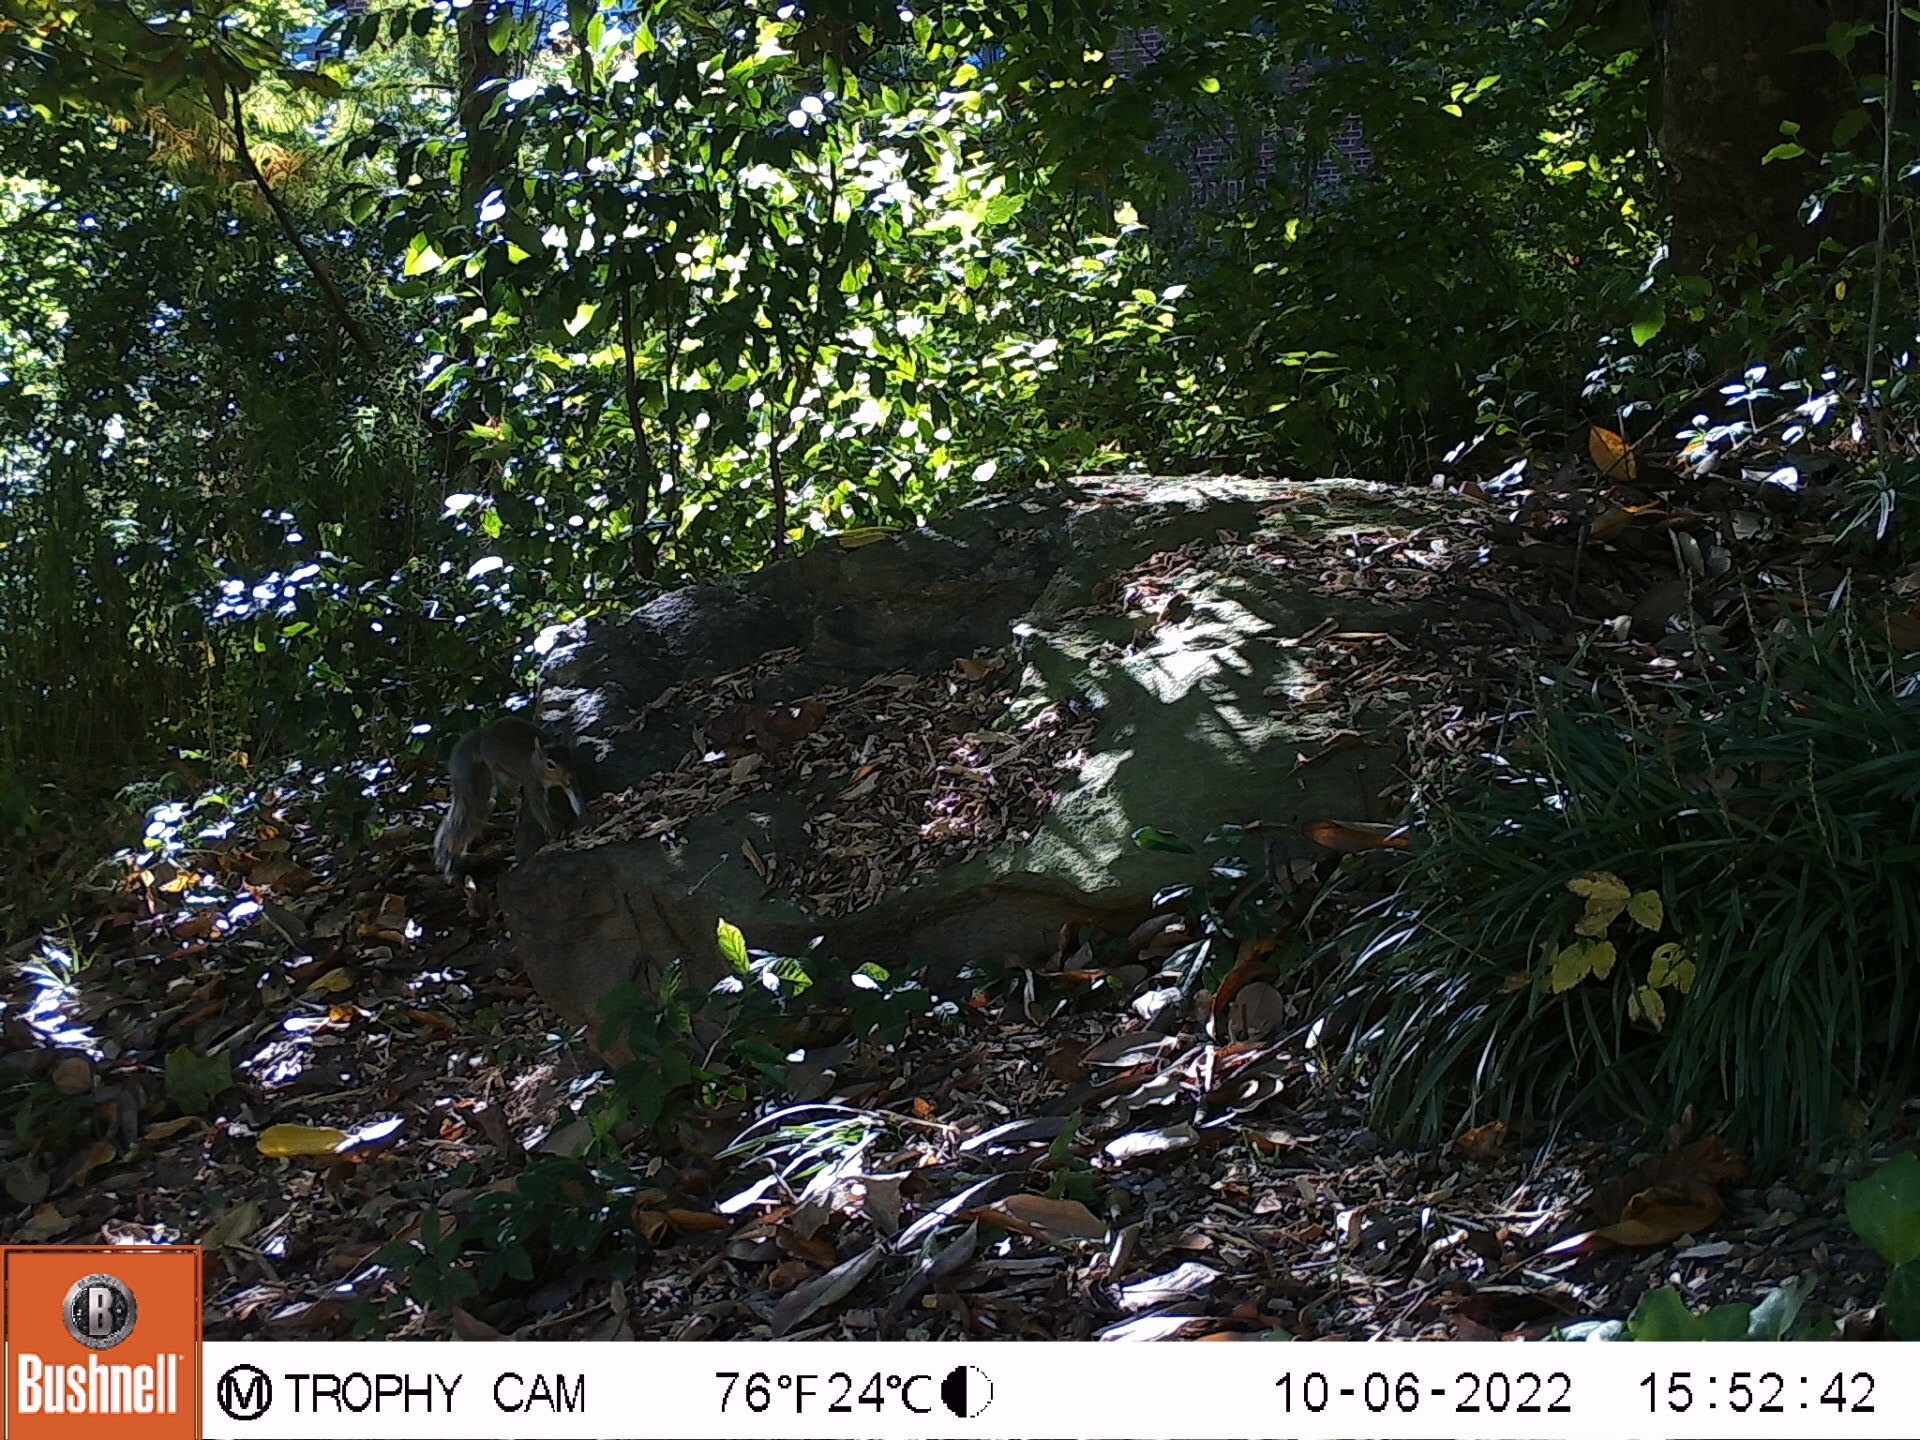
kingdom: Animalia
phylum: Chordata
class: Mammalia
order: Rodentia
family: Sciuridae
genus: Sciurus
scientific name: Sciurus carolinensis
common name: Eastern gray squirrel
